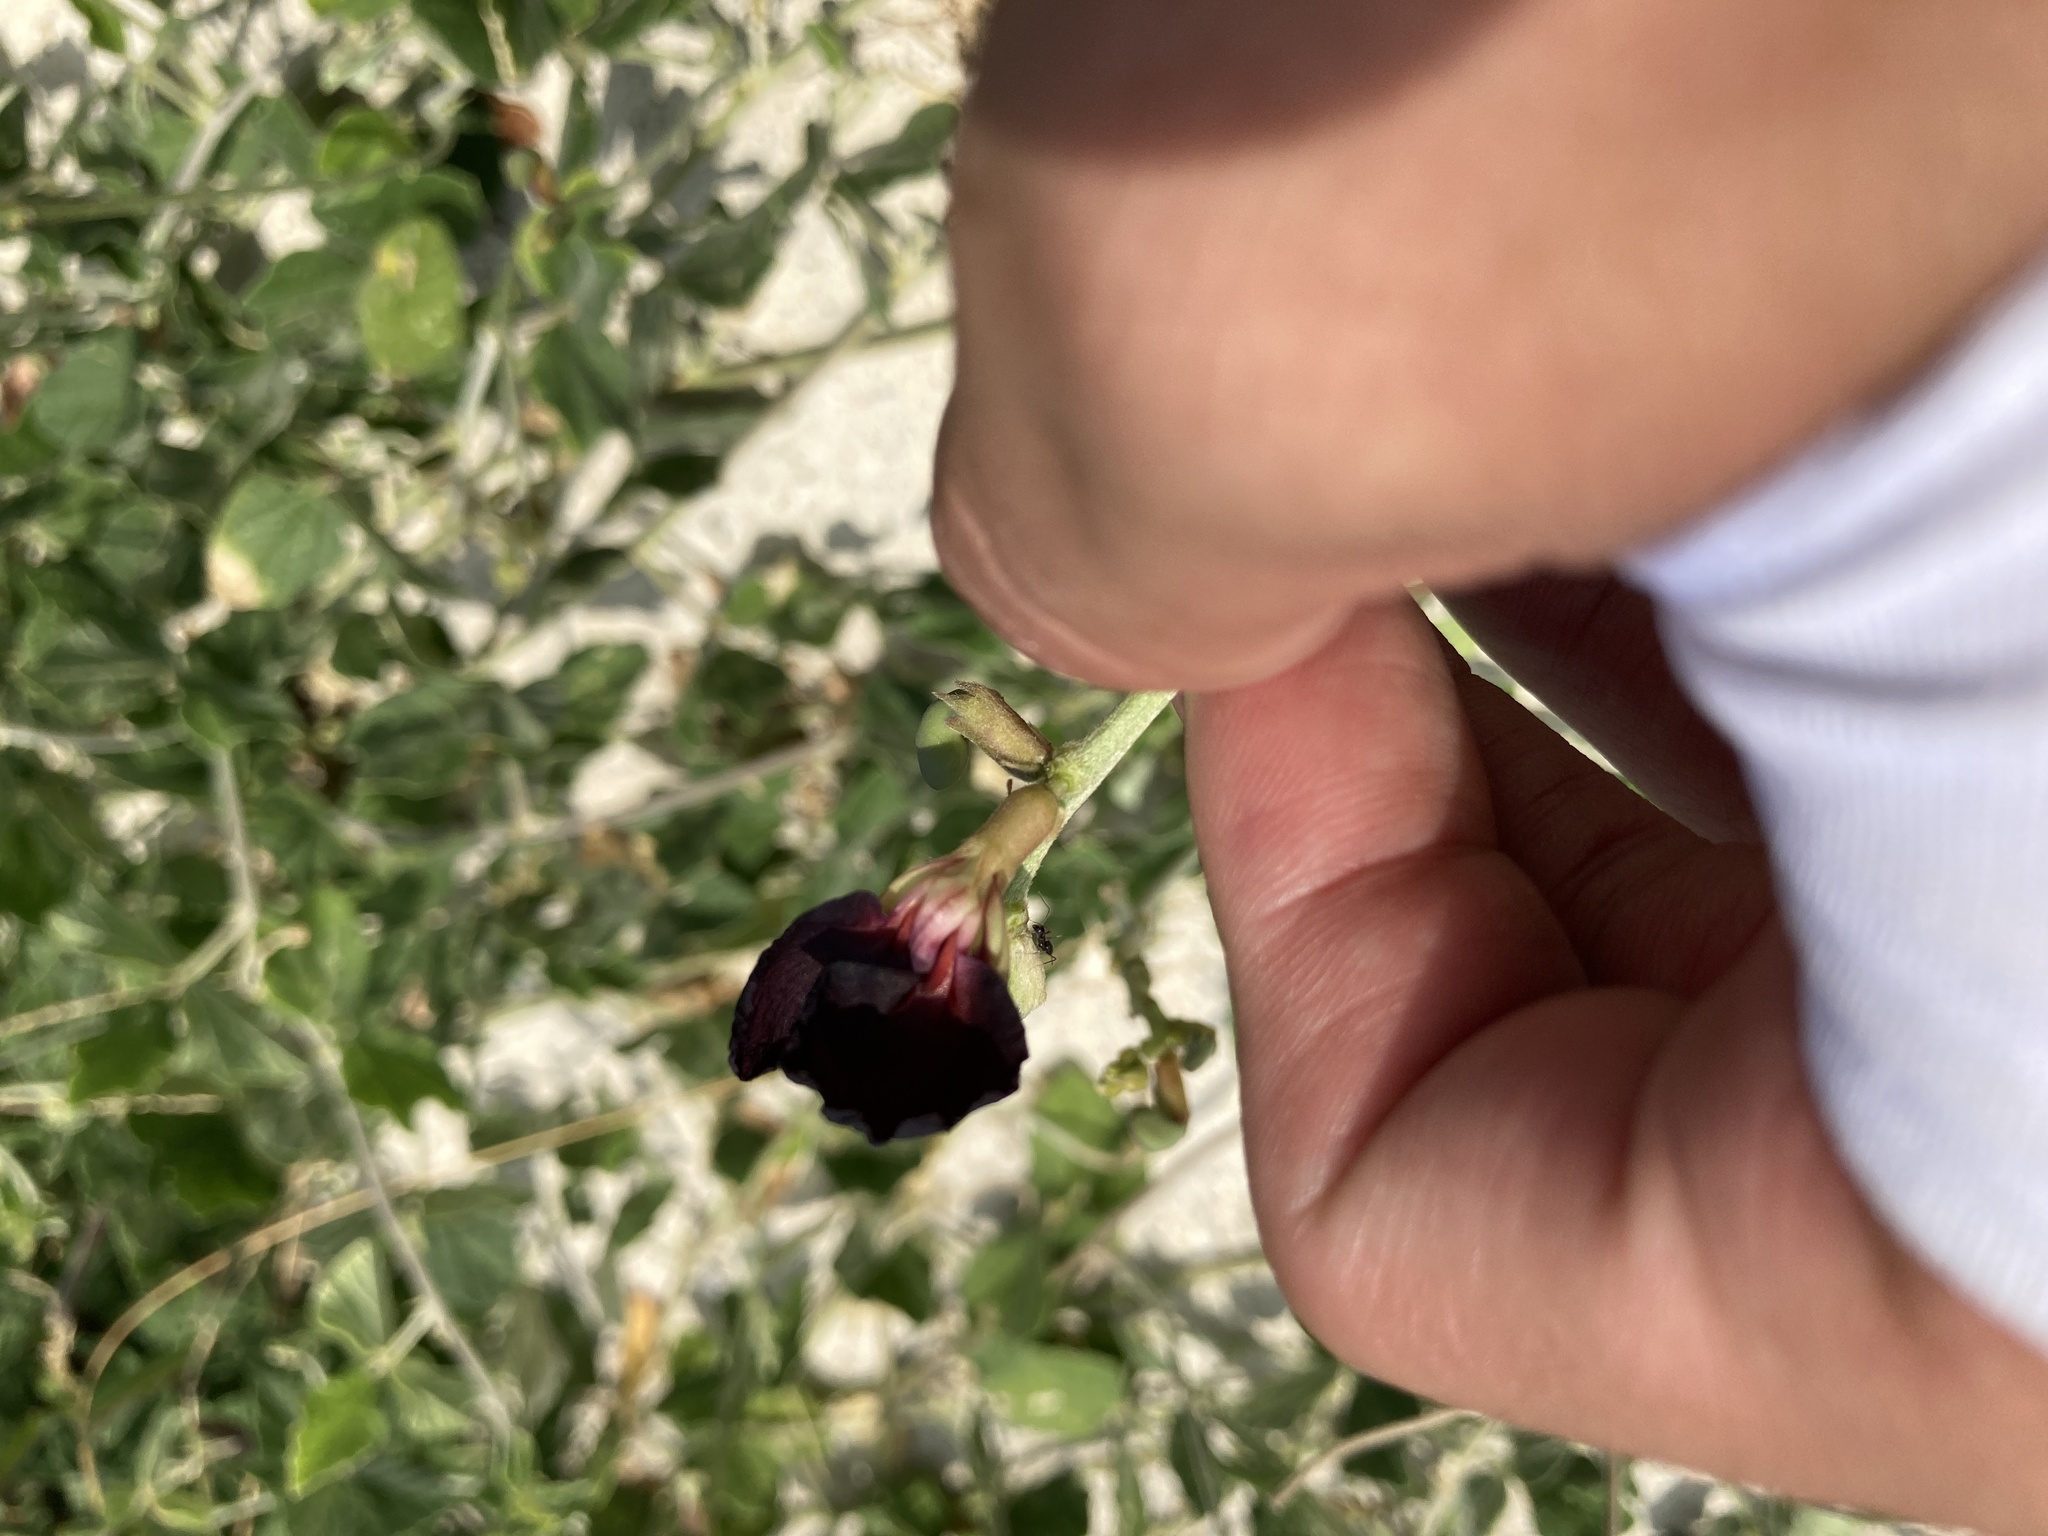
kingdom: Plantae
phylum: Tracheophyta
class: Magnoliopsida
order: Fabales
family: Fabaceae
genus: Macroptilium
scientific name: Macroptilium atropurpureum
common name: Purple bushbean
